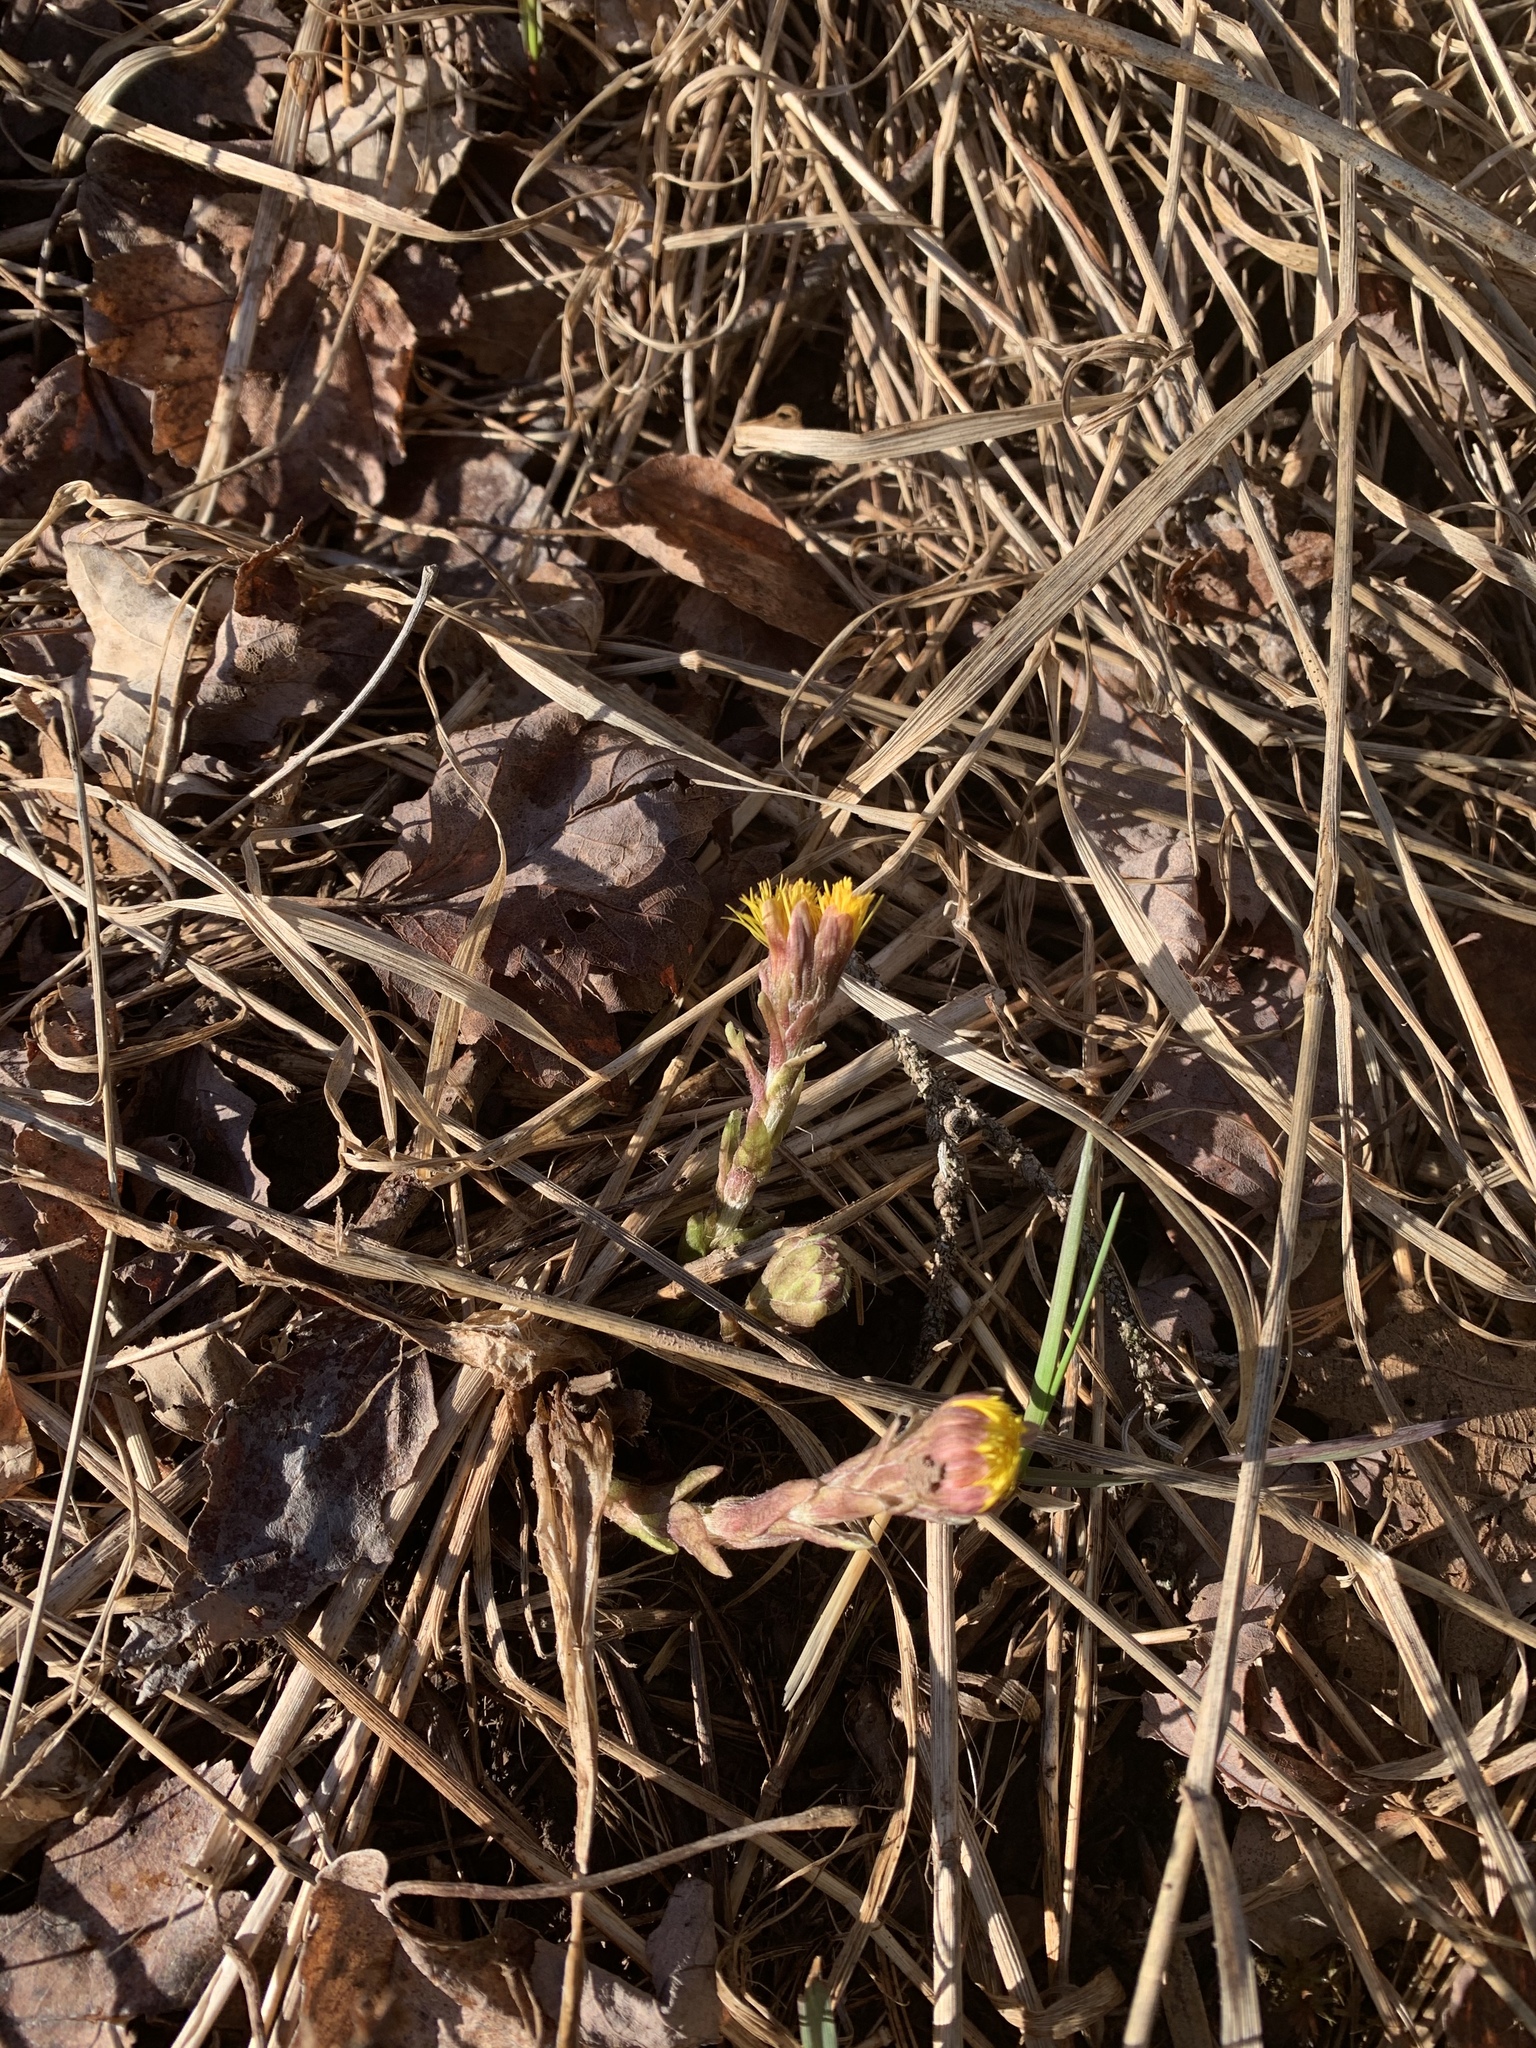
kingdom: Plantae
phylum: Tracheophyta
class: Magnoliopsida
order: Asterales
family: Asteraceae
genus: Tussilago
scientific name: Tussilago farfara
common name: Coltsfoot
